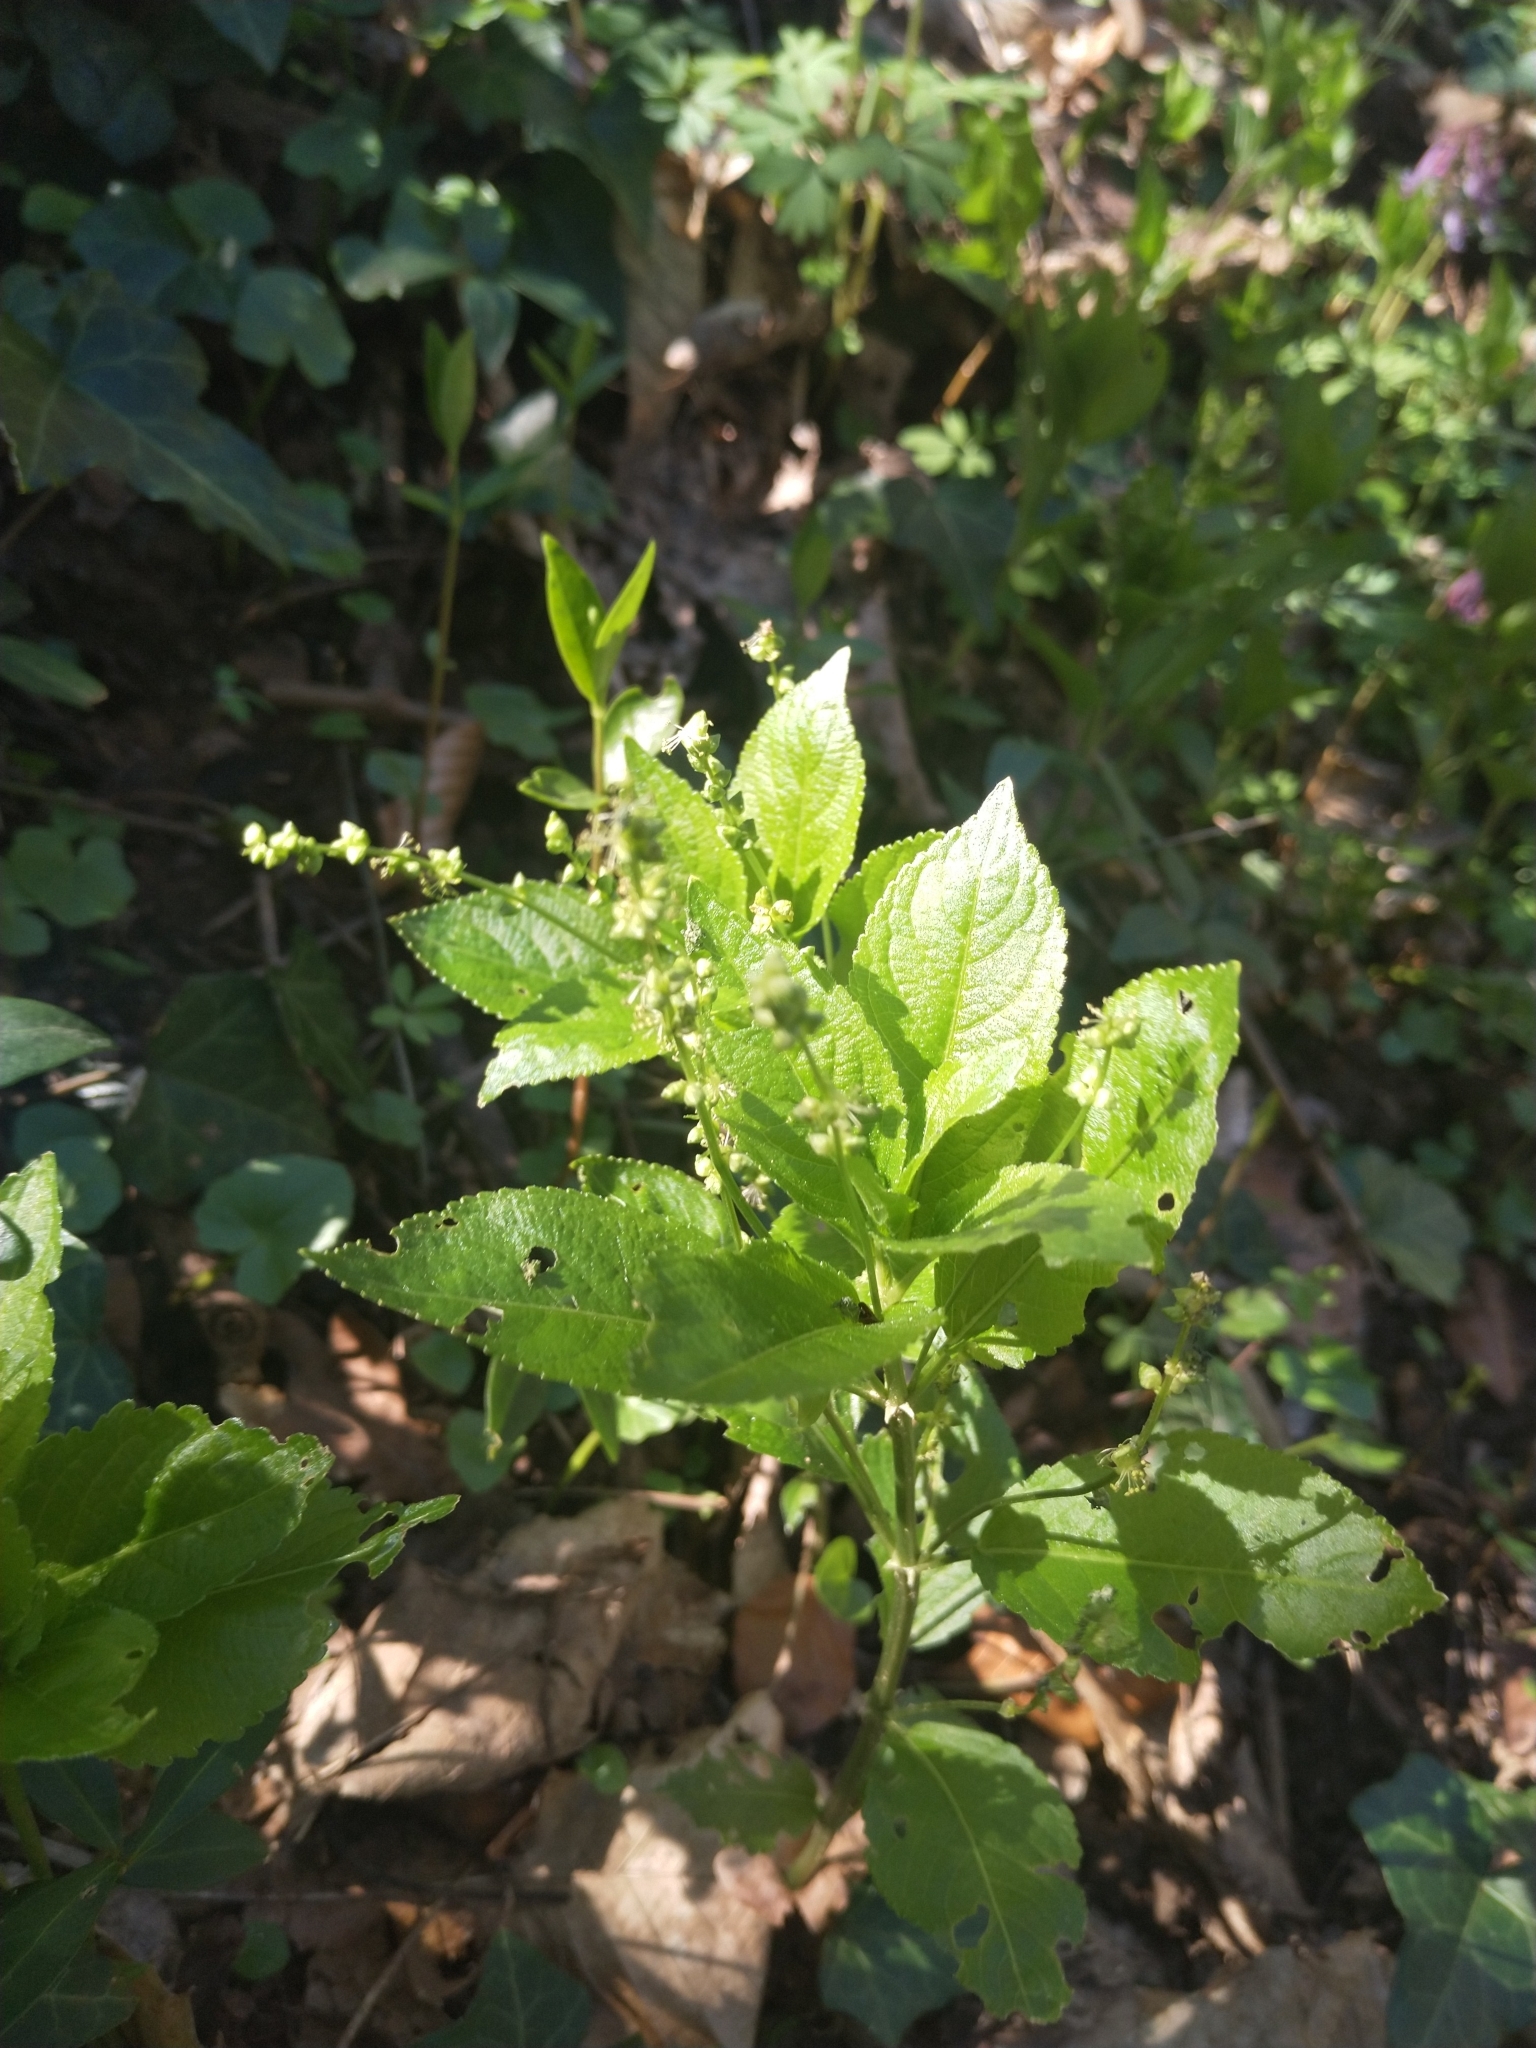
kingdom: Plantae
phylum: Tracheophyta
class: Magnoliopsida
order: Malpighiales
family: Euphorbiaceae
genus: Mercurialis
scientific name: Mercurialis perennis
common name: Dog mercury
